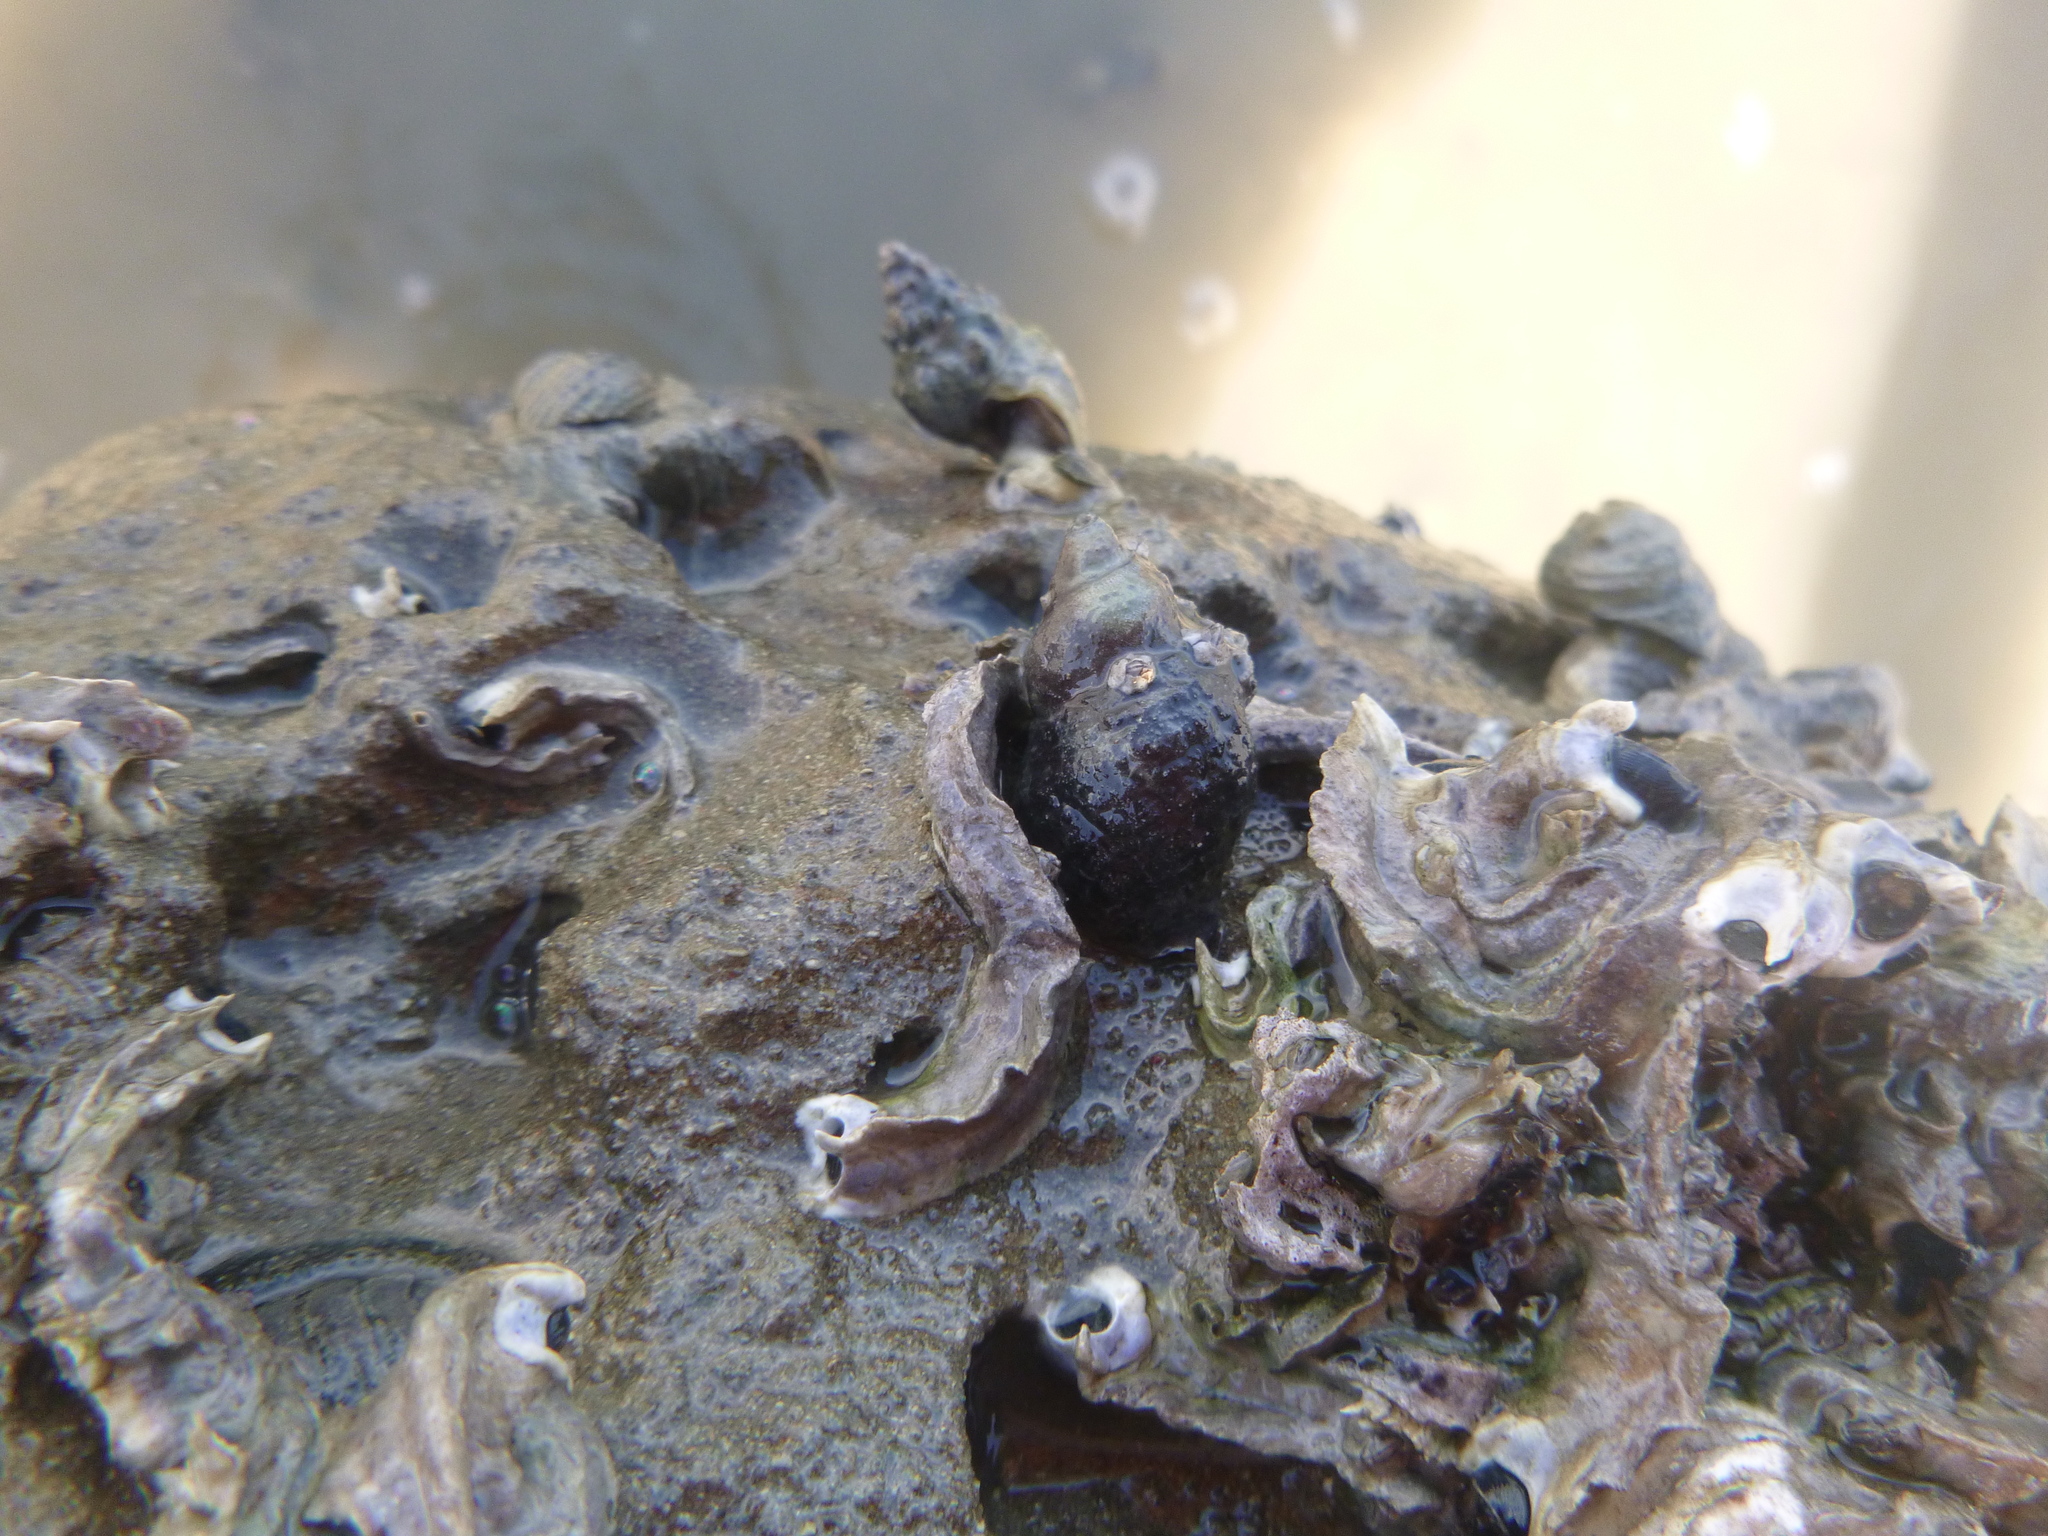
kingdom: Animalia
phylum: Mollusca
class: Gastropoda
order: Neogastropoda
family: Muricidae
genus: Haustrum
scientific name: Haustrum scobina
